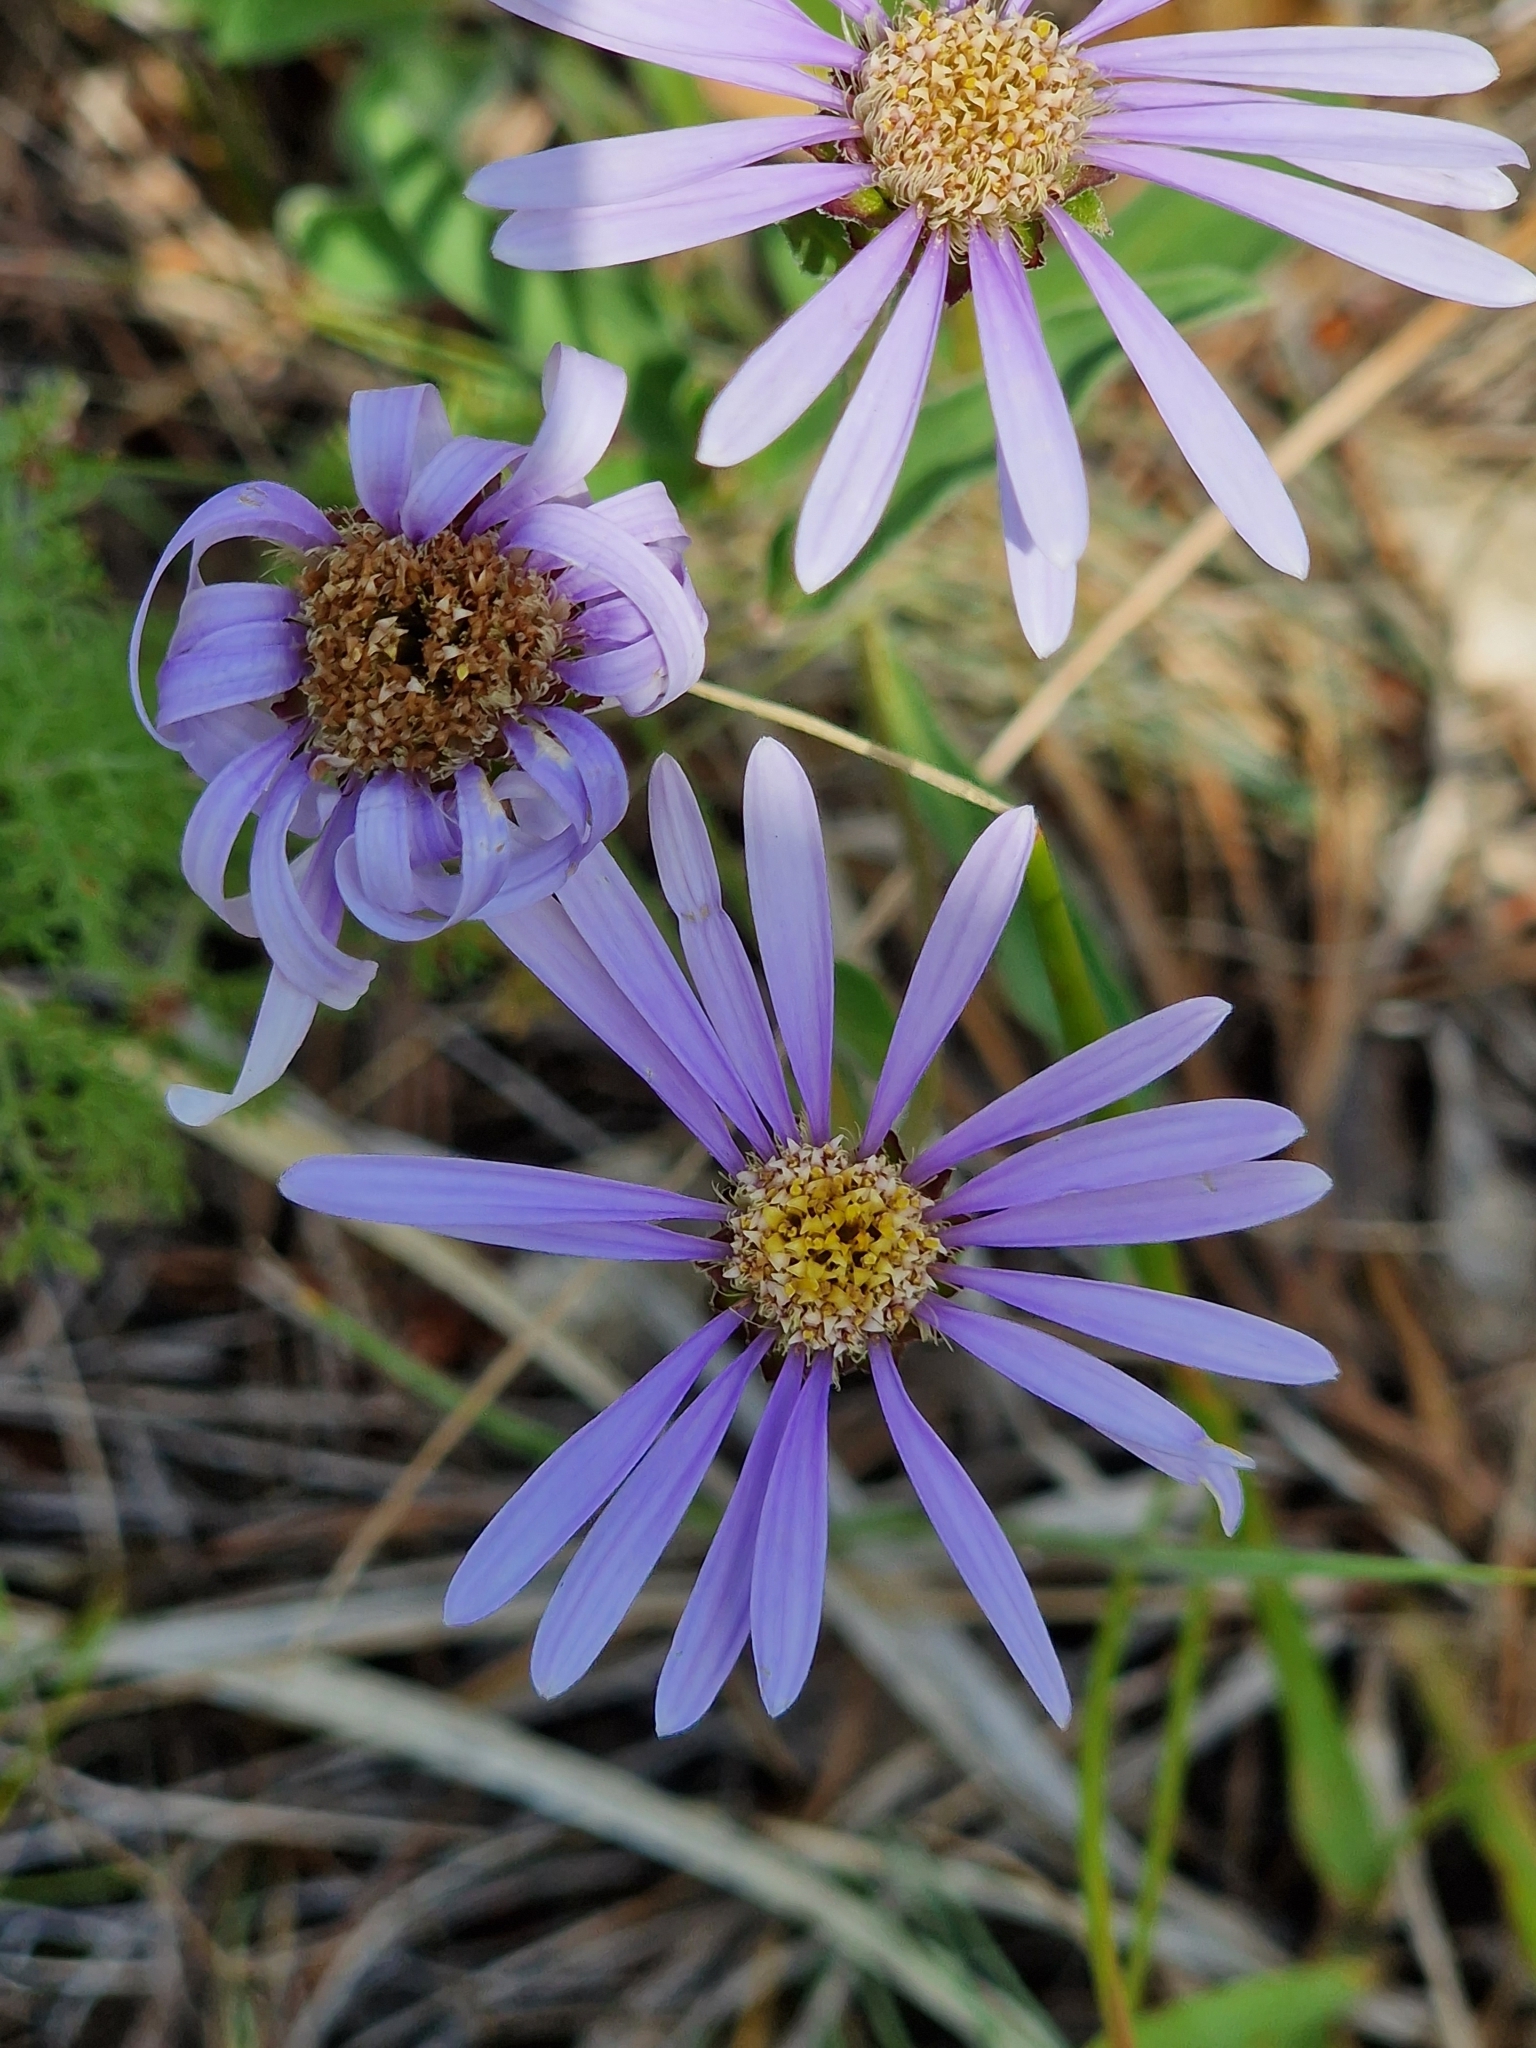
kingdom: Plantae
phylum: Tracheophyta
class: Magnoliopsida
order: Asterales
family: Asteraceae
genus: Aster
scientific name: Aster amellus
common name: European michaelmas daisy
